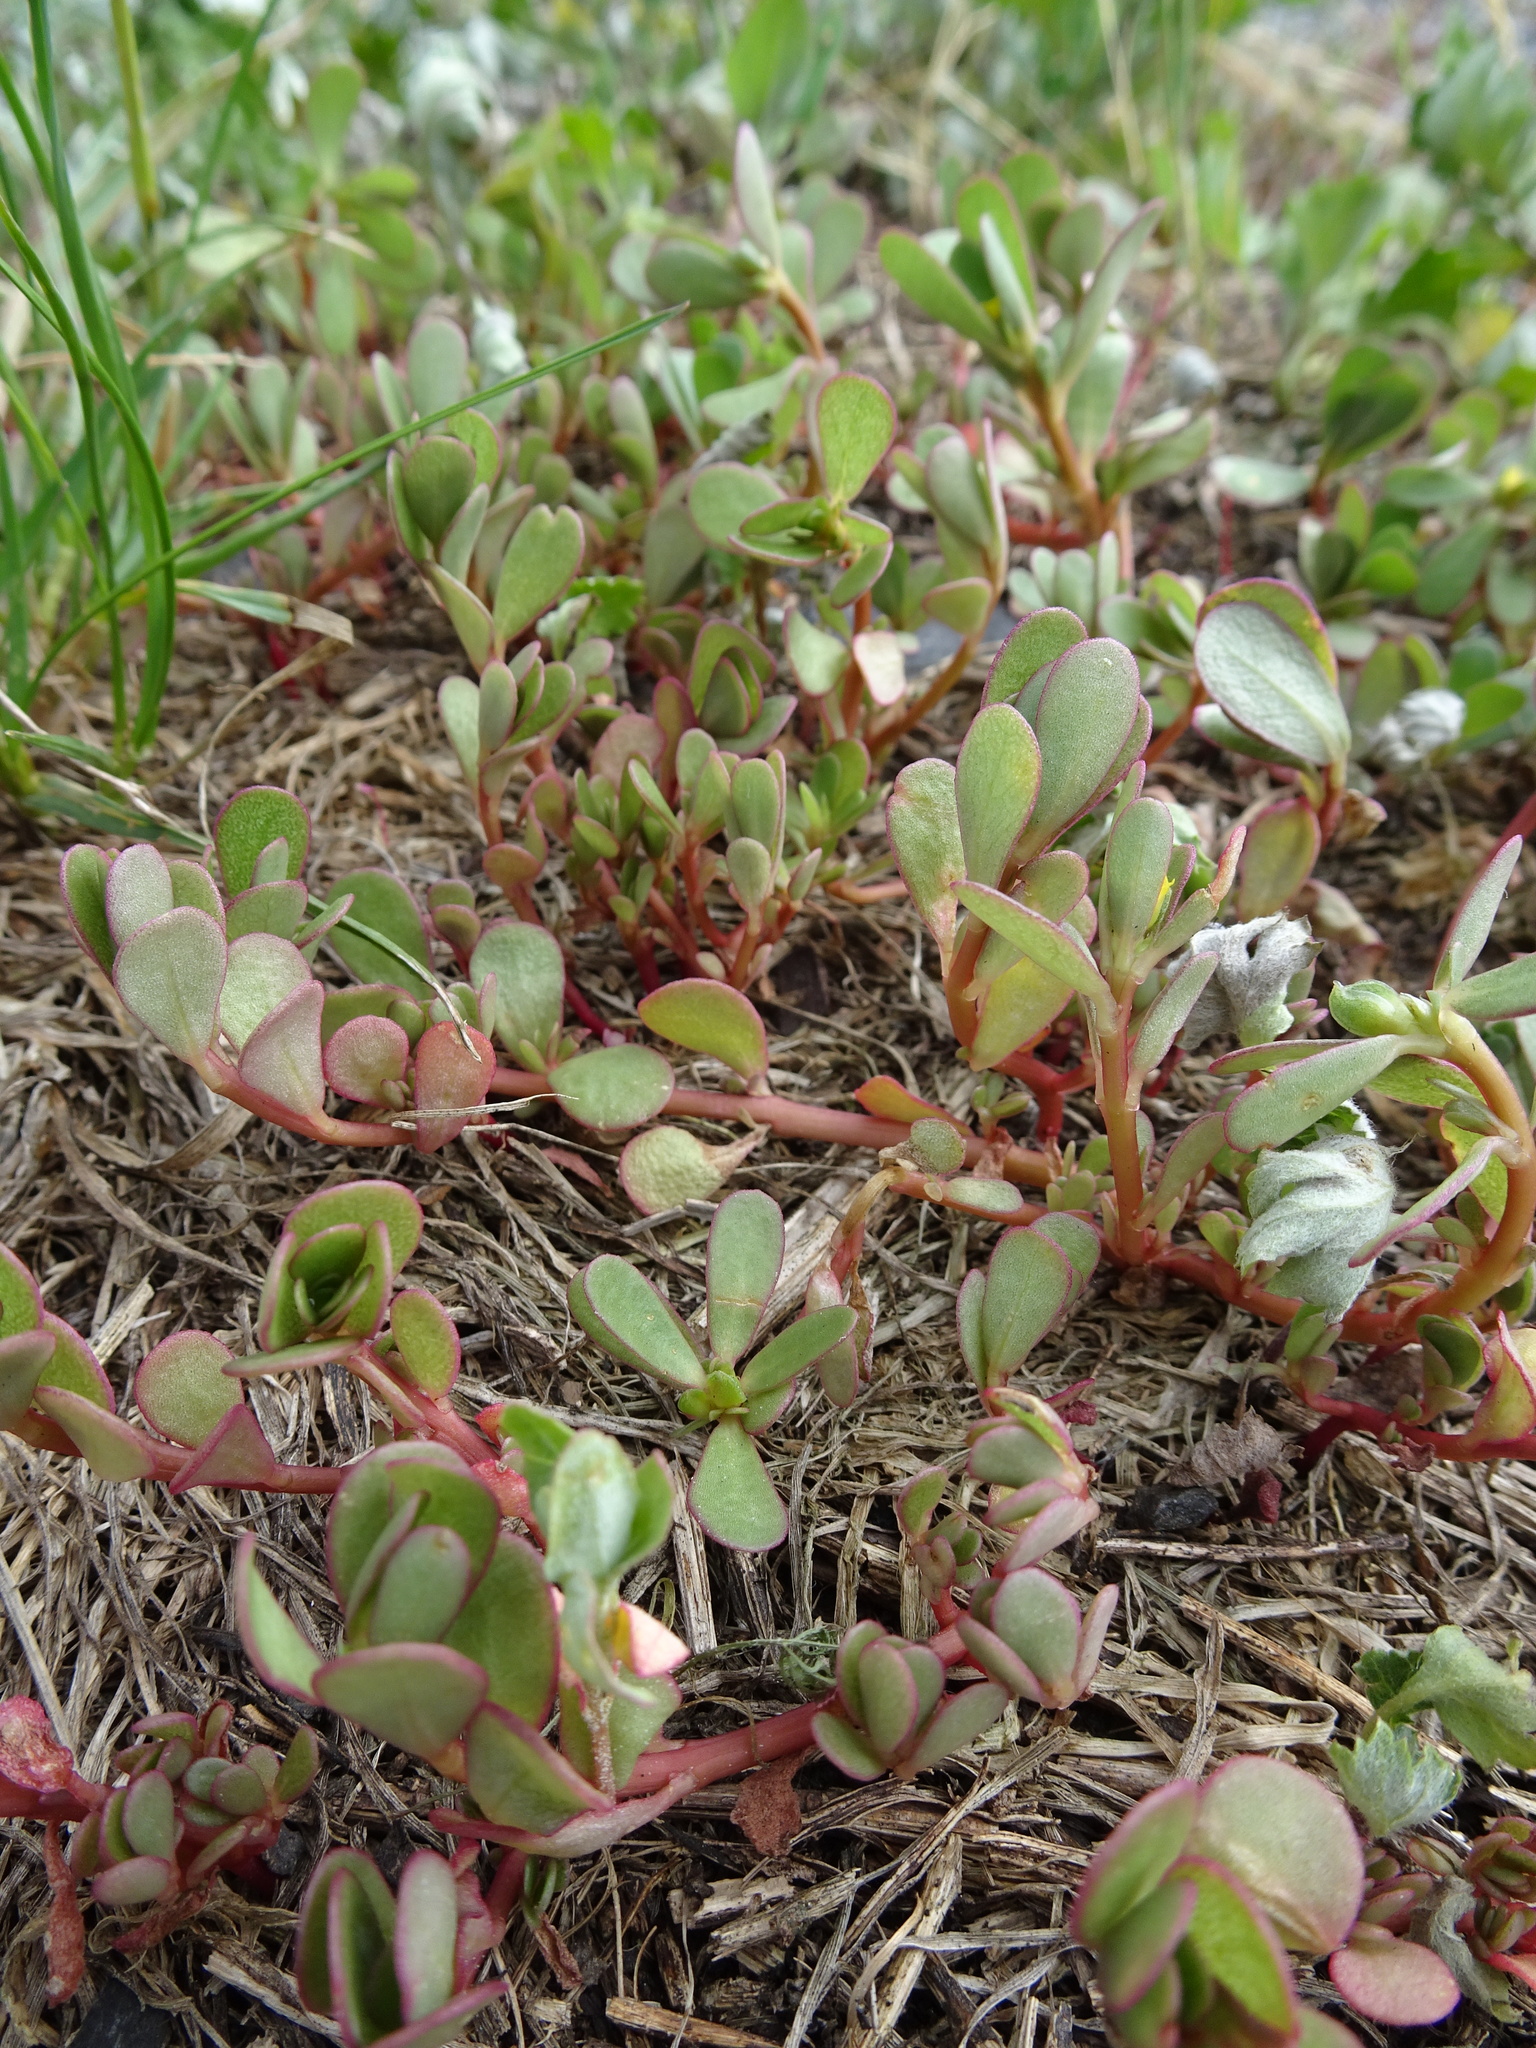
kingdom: Plantae
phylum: Tracheophyta
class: Magnoliopsida
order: Caryophyllales
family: Portulacaceae
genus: Portulaca
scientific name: Portulaca oleracea
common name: Common purslane
